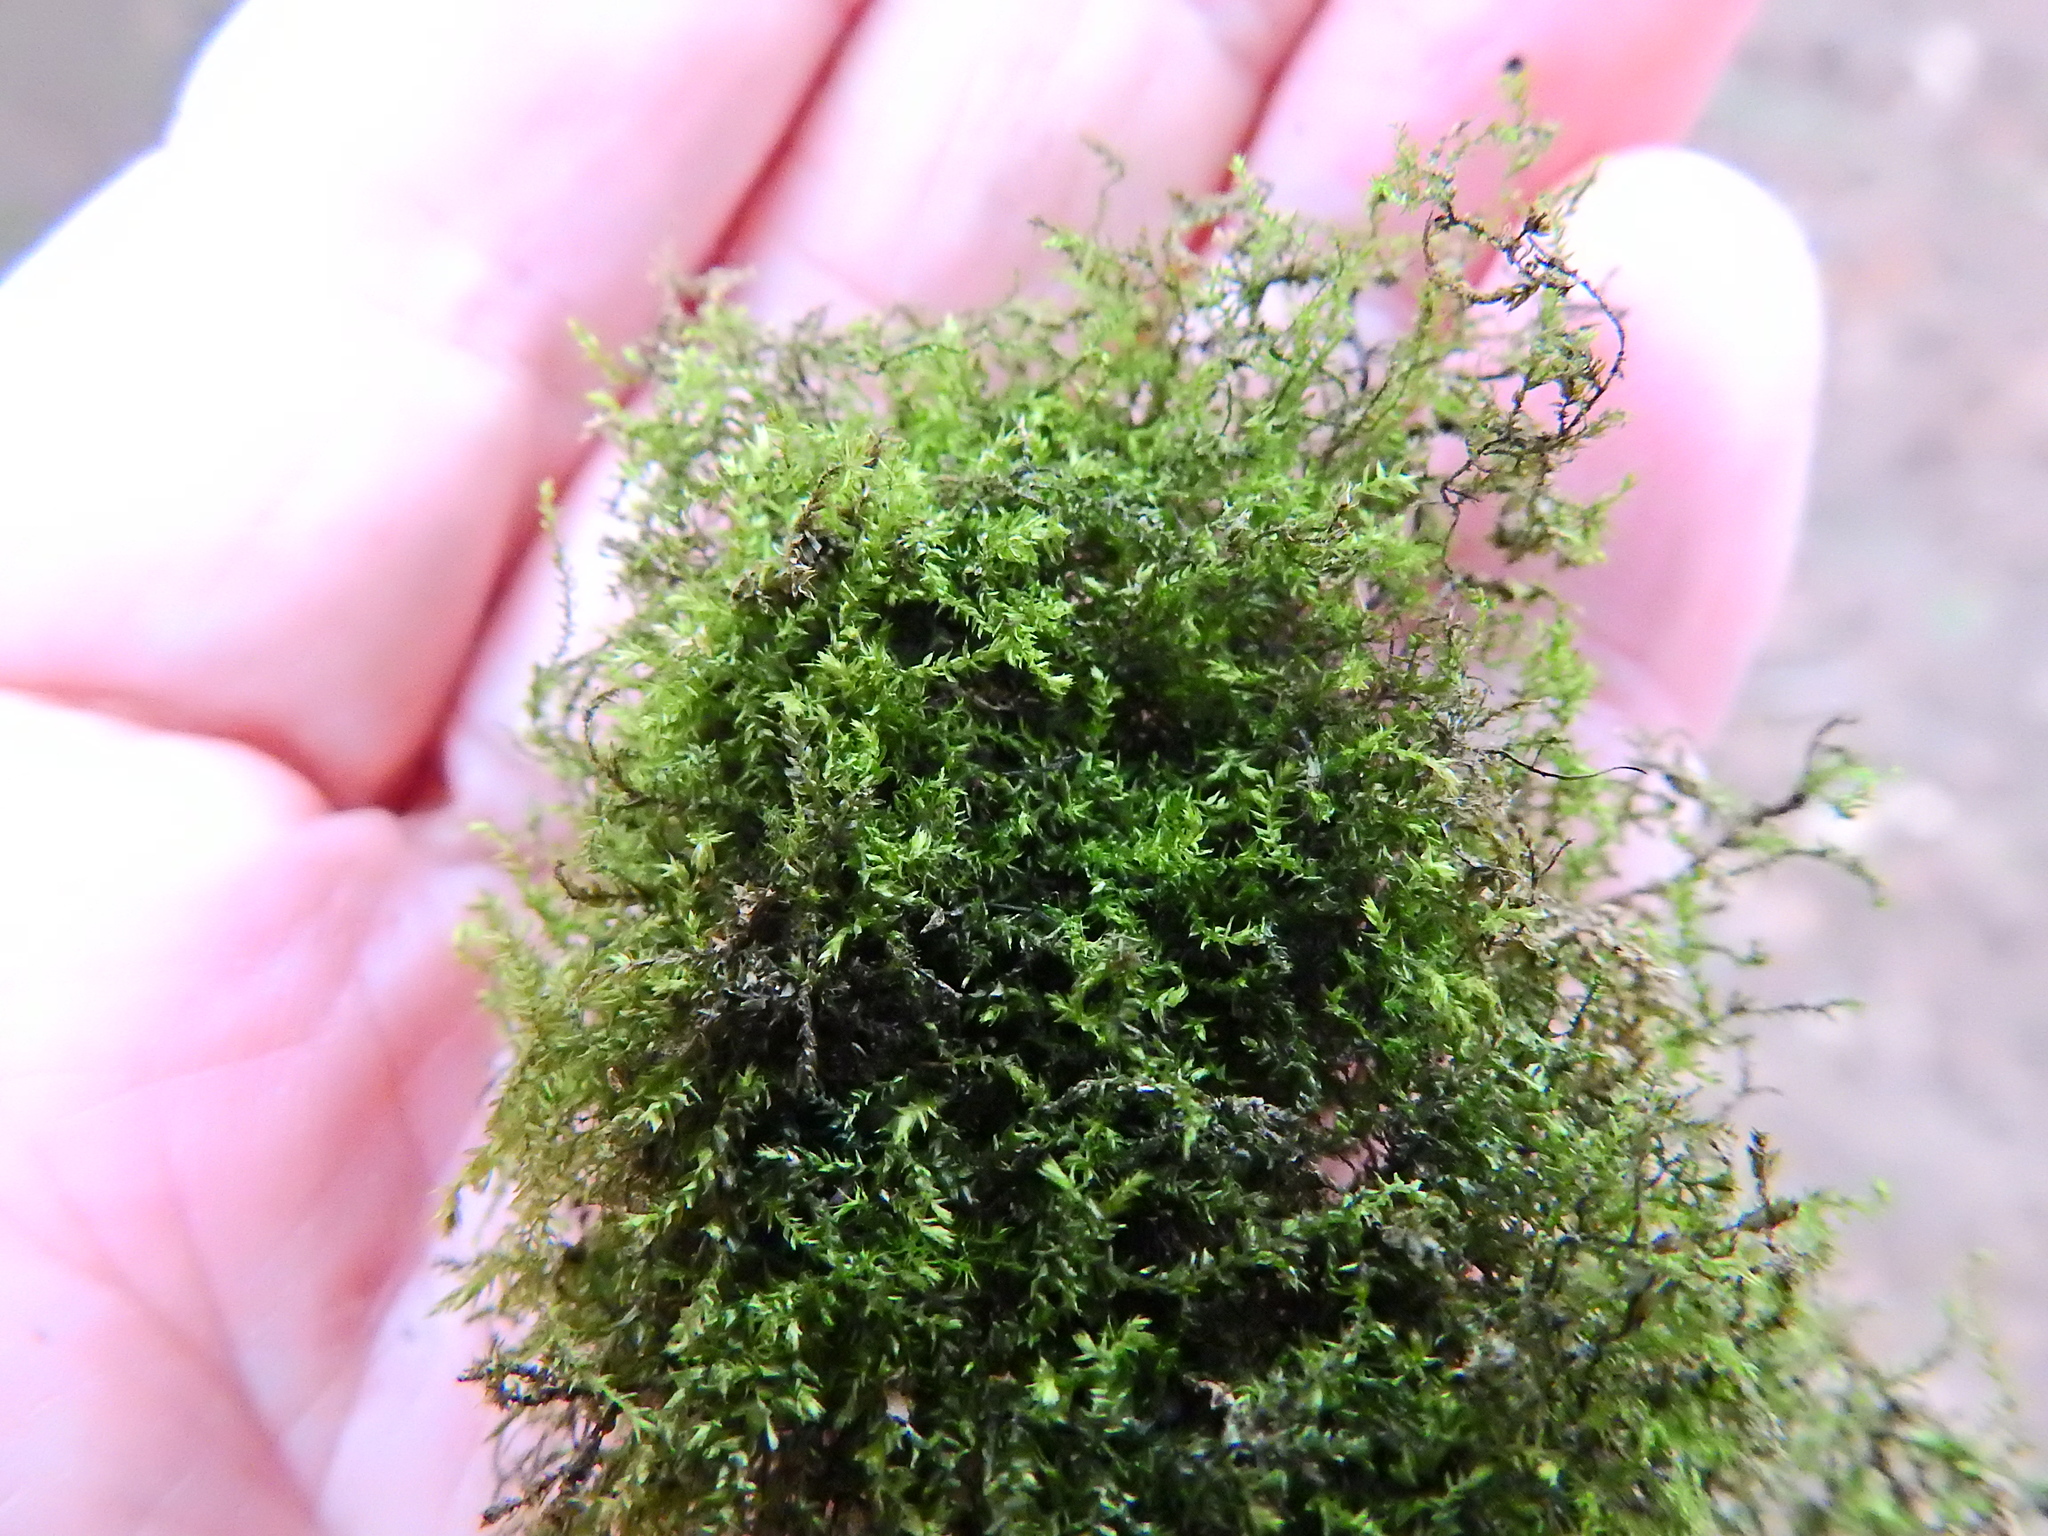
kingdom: Plantae
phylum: Bryophyta
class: Bryopsida
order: Hypnales
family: Brachytheciaceae
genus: Oxyrrhynchium
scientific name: Oxyrrhynchium hians
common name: Spreading beaked moss
